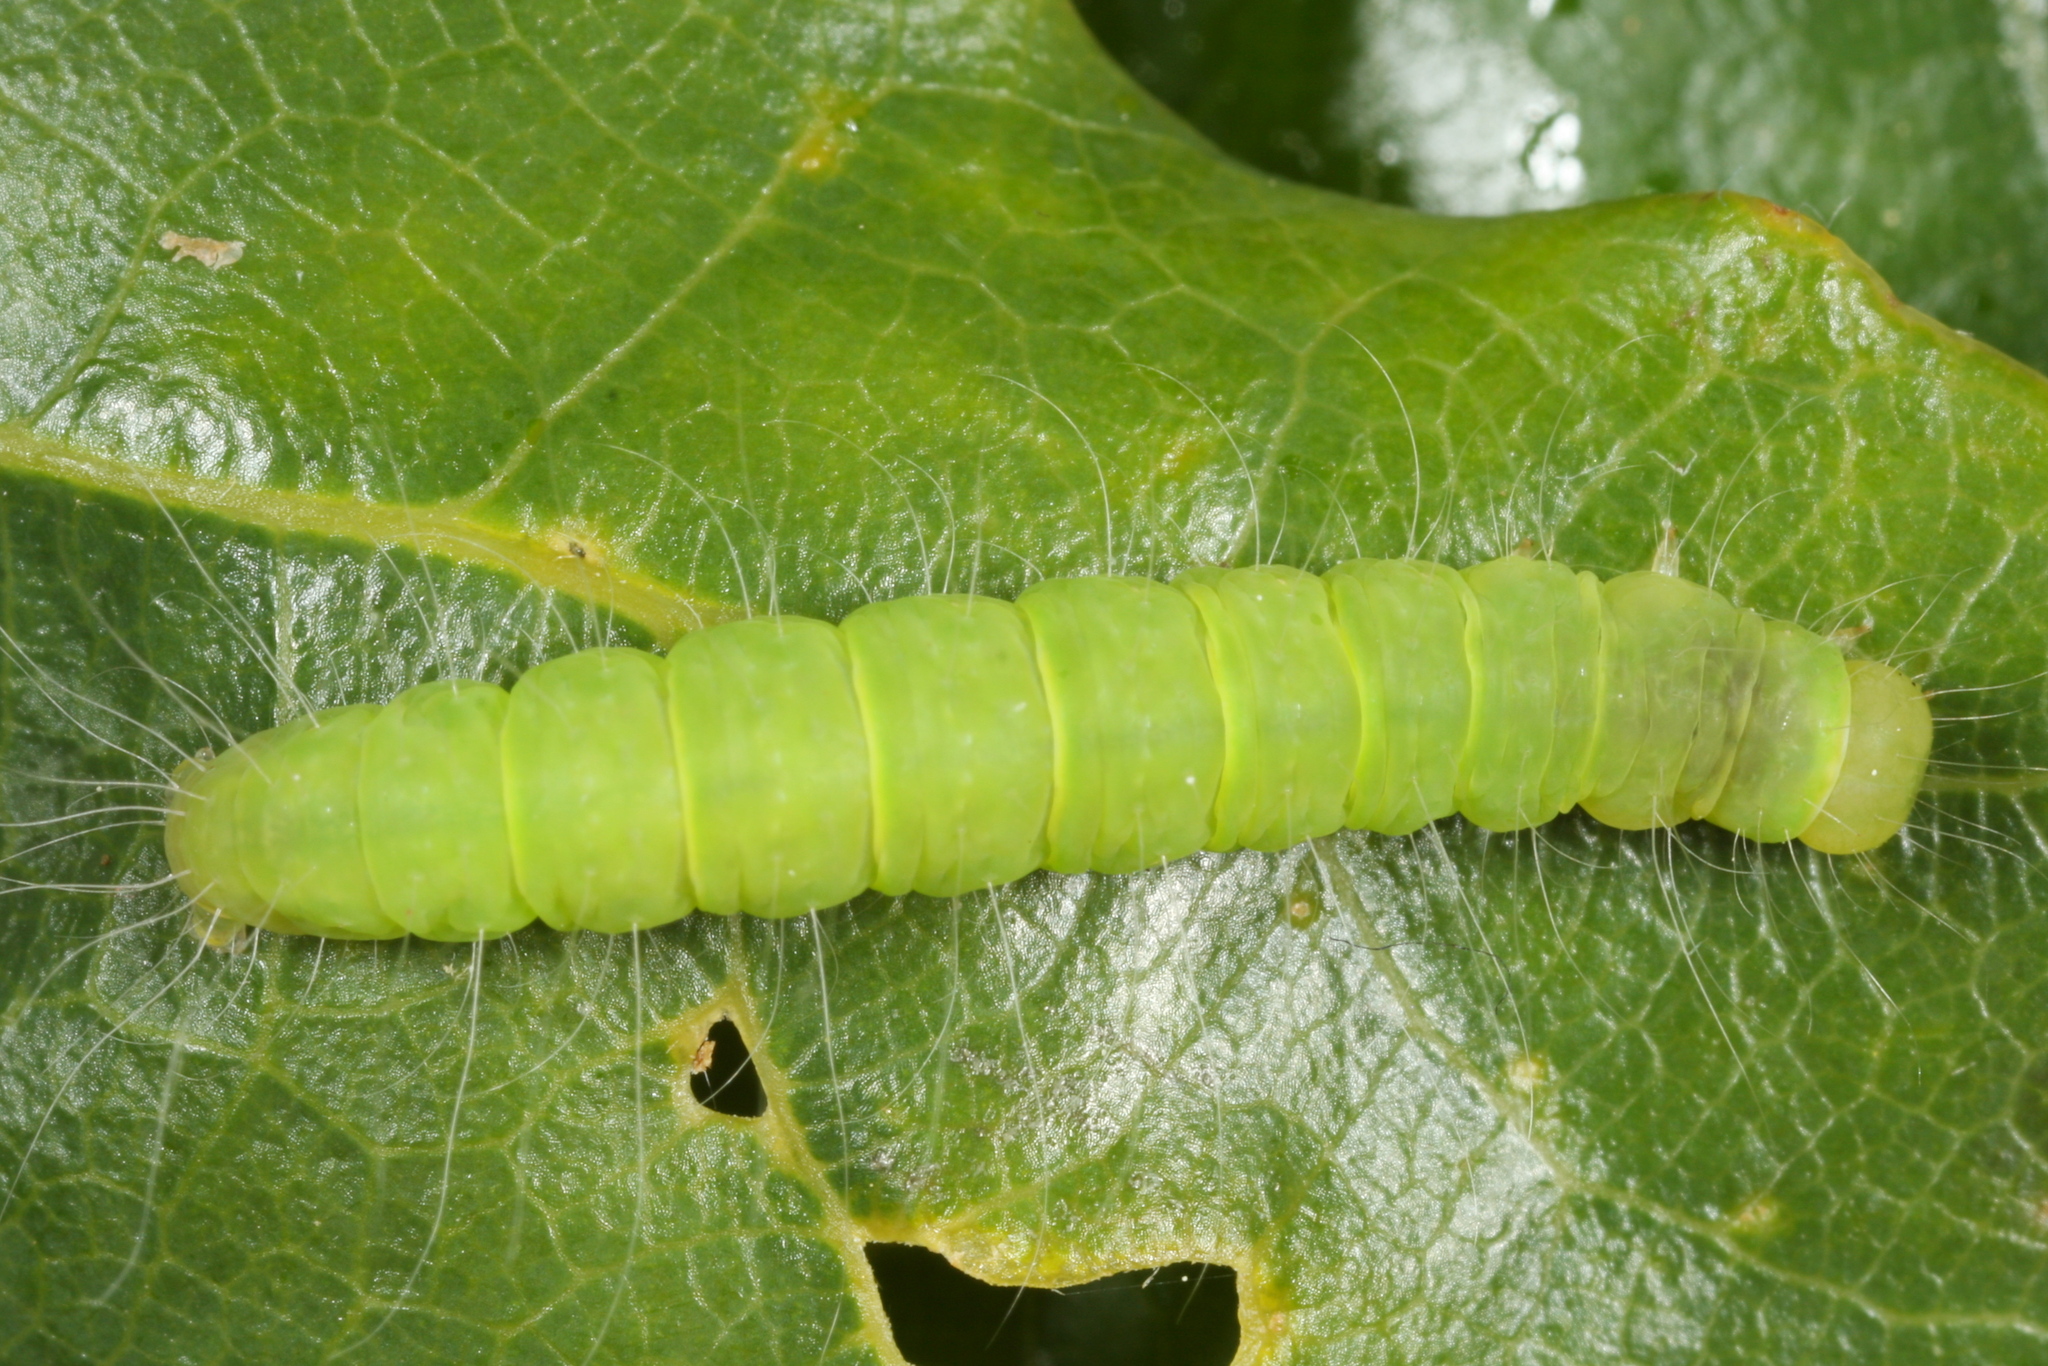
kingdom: Animalia
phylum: Arthropoda
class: Insecta
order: Lepidoptera
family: Nolidae
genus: Nycteola
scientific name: Nycteola revayana
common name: Oak nycteoline
